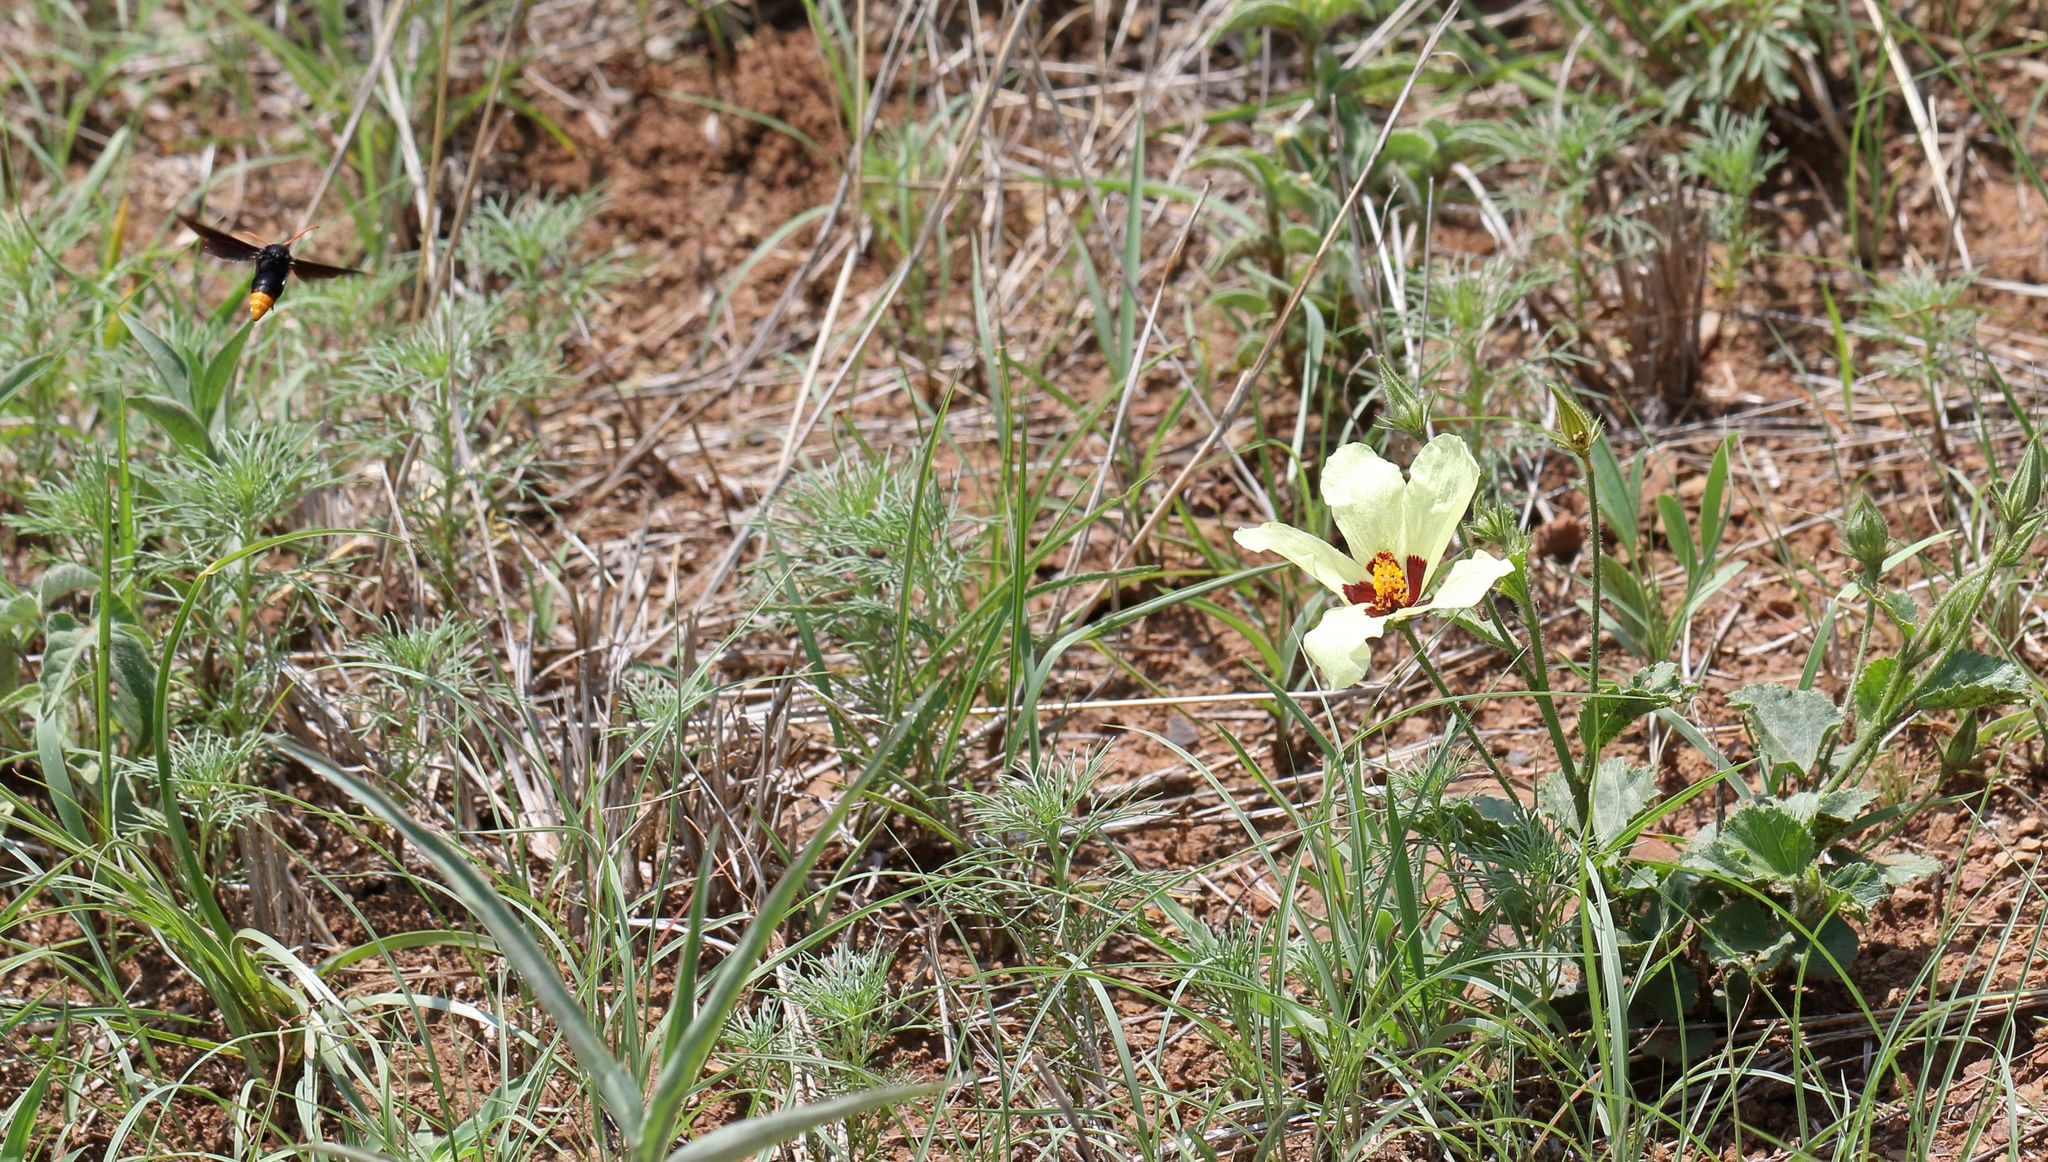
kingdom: Animalia
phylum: Arthropoda
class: Insecta
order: Hymenoptera
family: Vespidae
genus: Synagris
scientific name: Synagris
